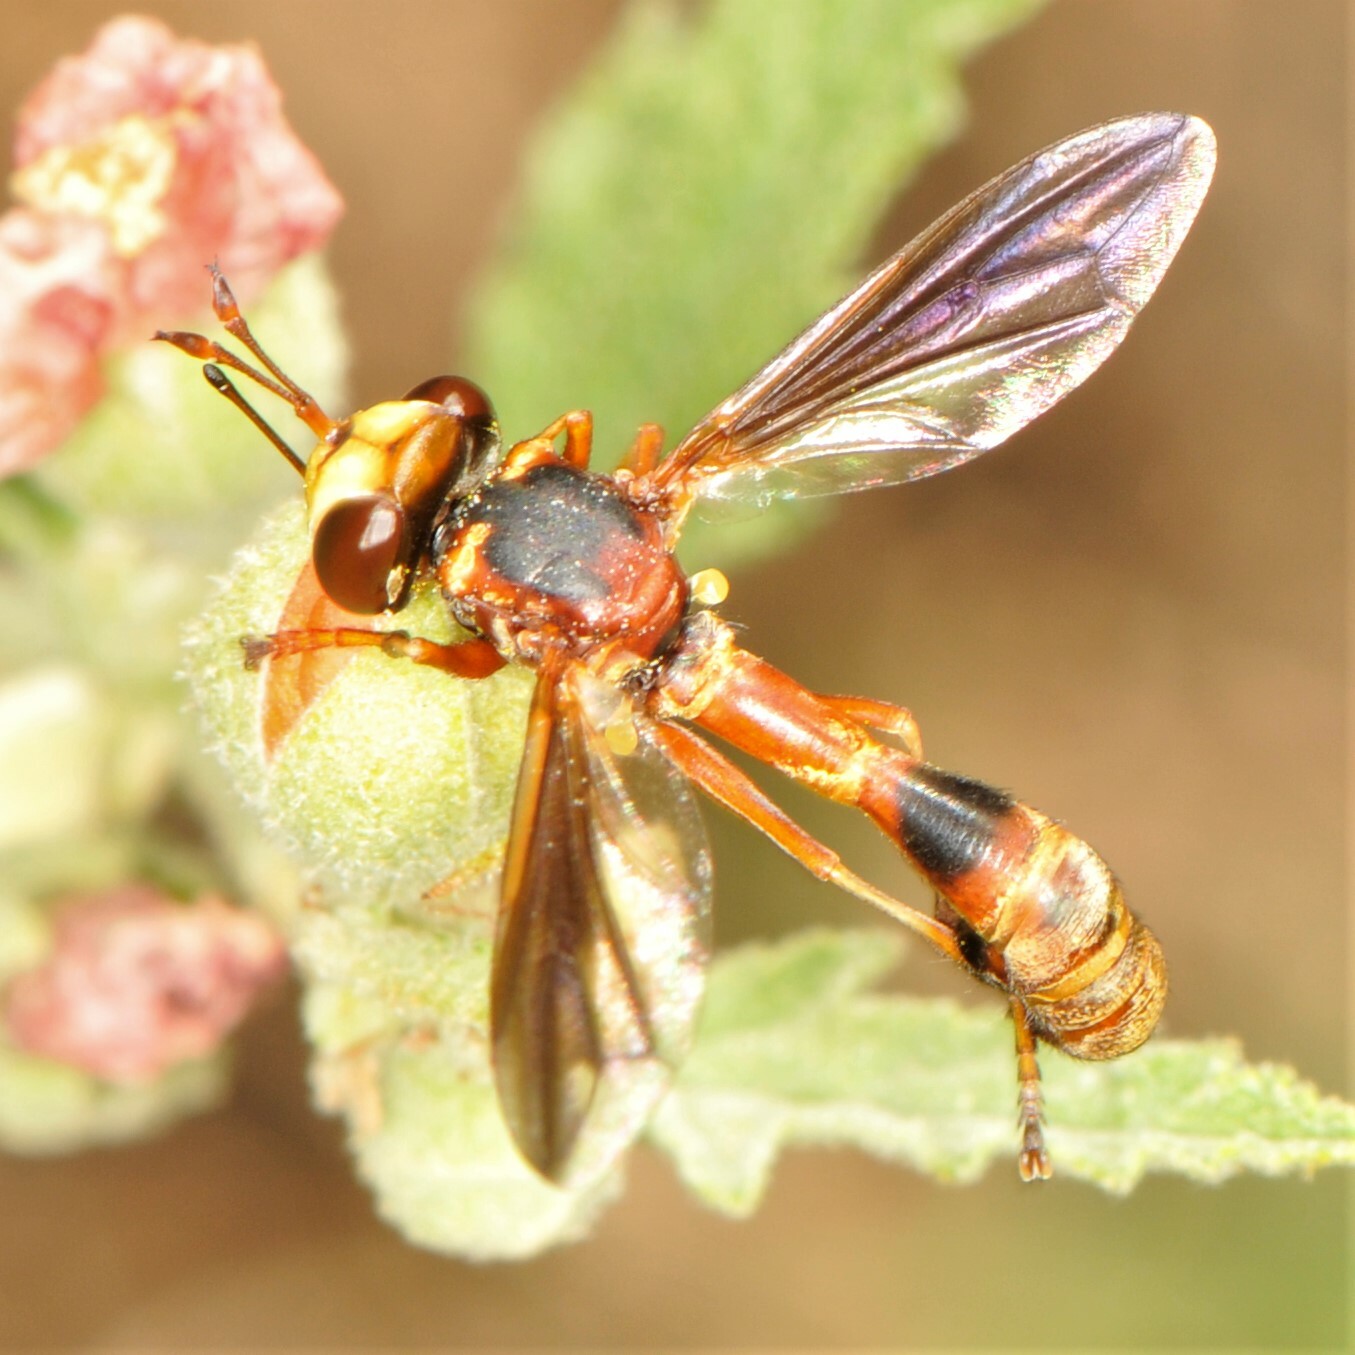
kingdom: Animalia
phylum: Arthropoda
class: Insecta
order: Diptera
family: Conopidae
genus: Physocephala
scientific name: Physocephala
